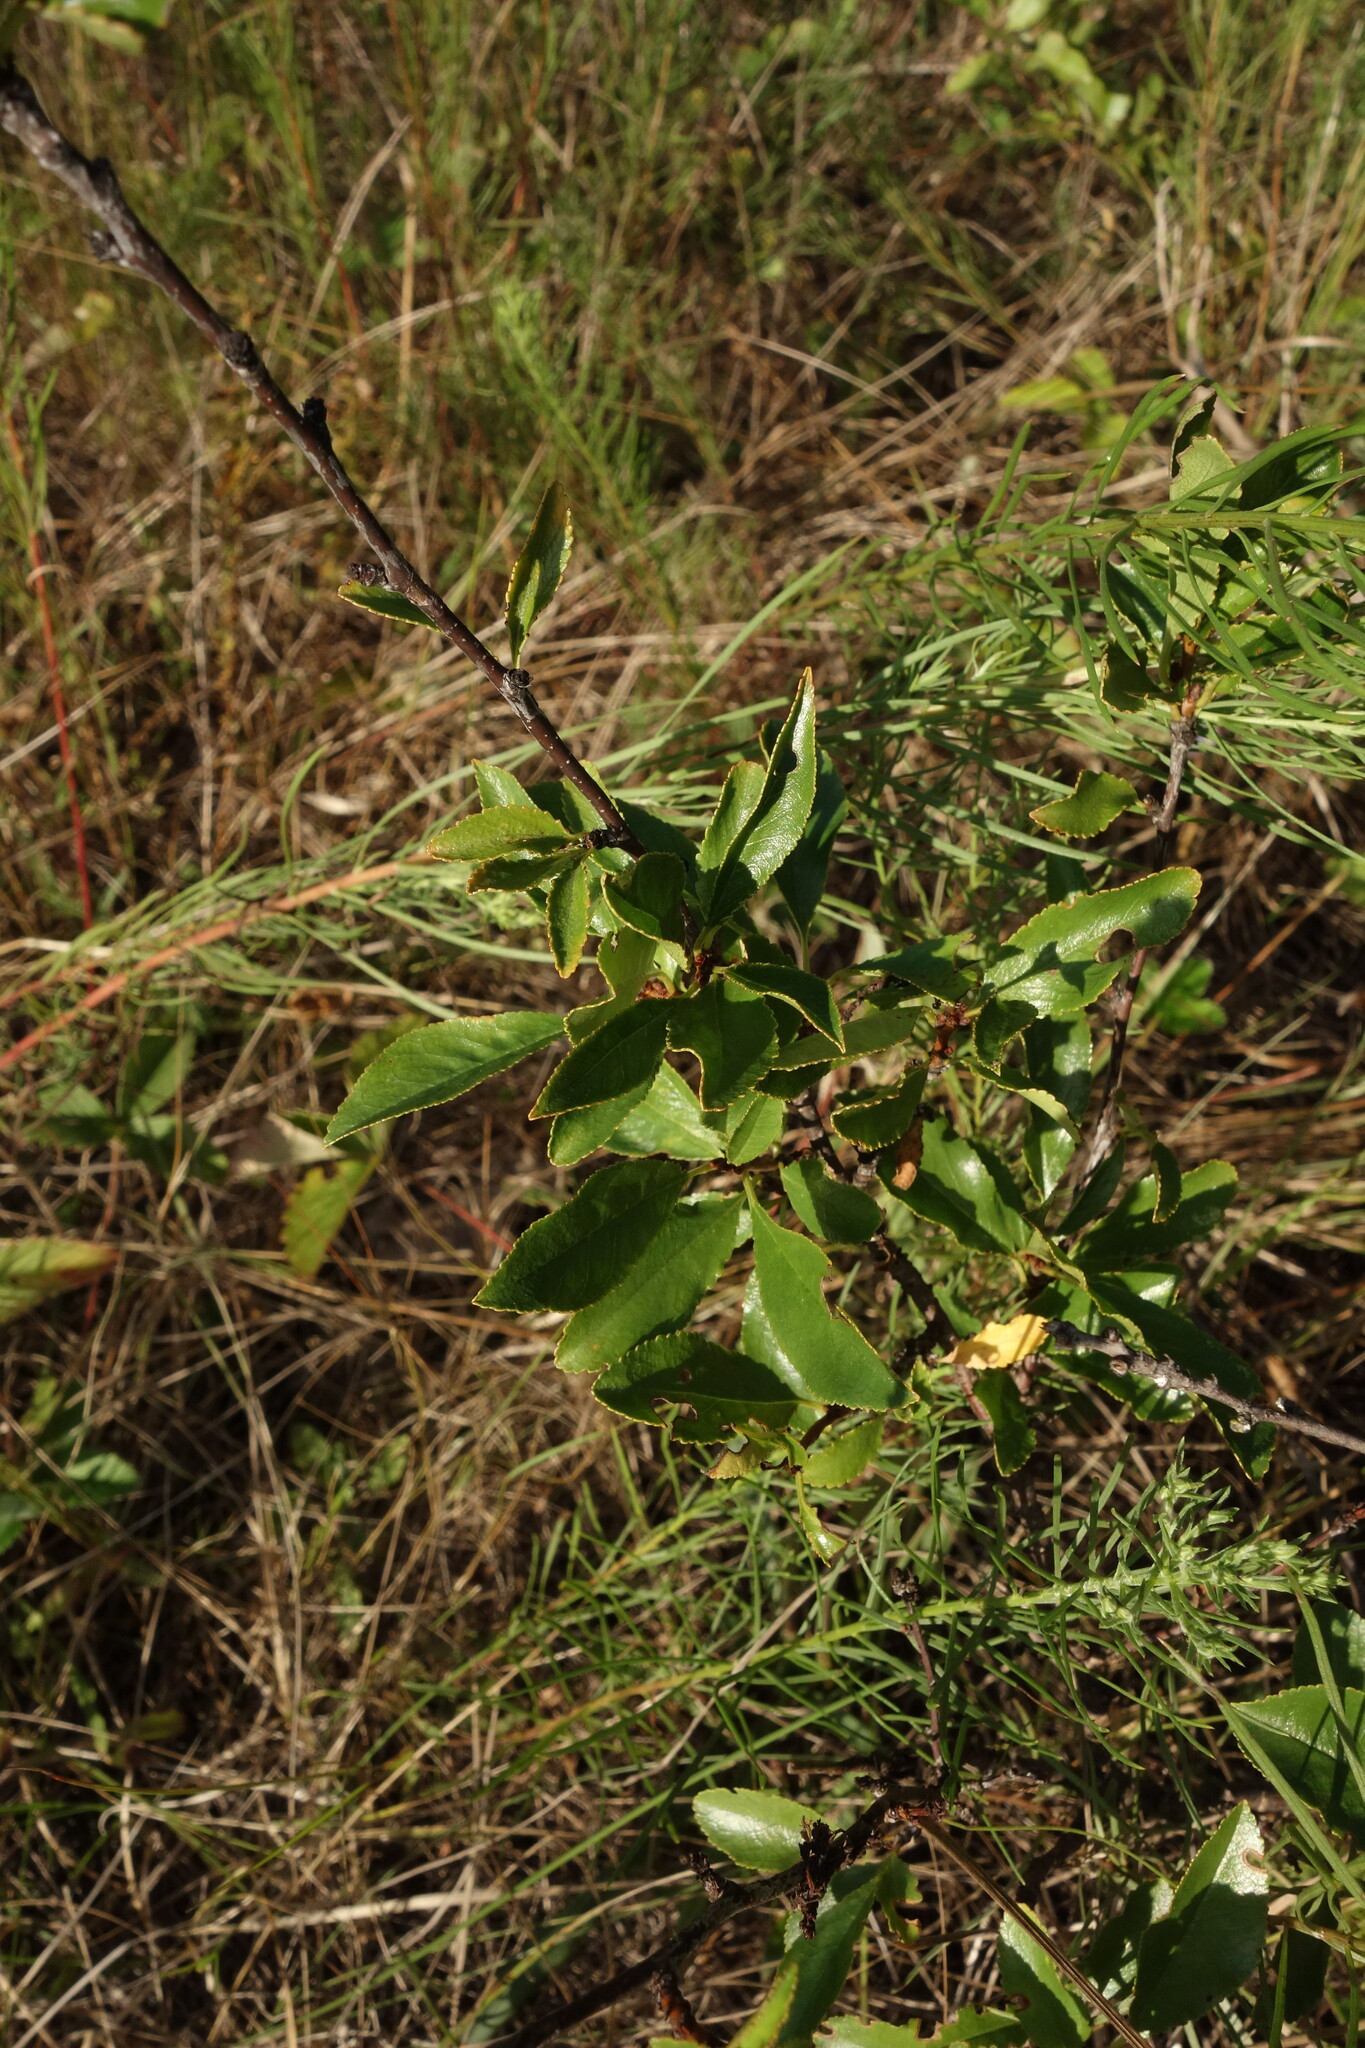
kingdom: Plantae
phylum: Tracheophyta
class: Magnoliopsida
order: Rosales
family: Rosaceae
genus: Prunus
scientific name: Prunus fruticosa
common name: European dwarf cherry
